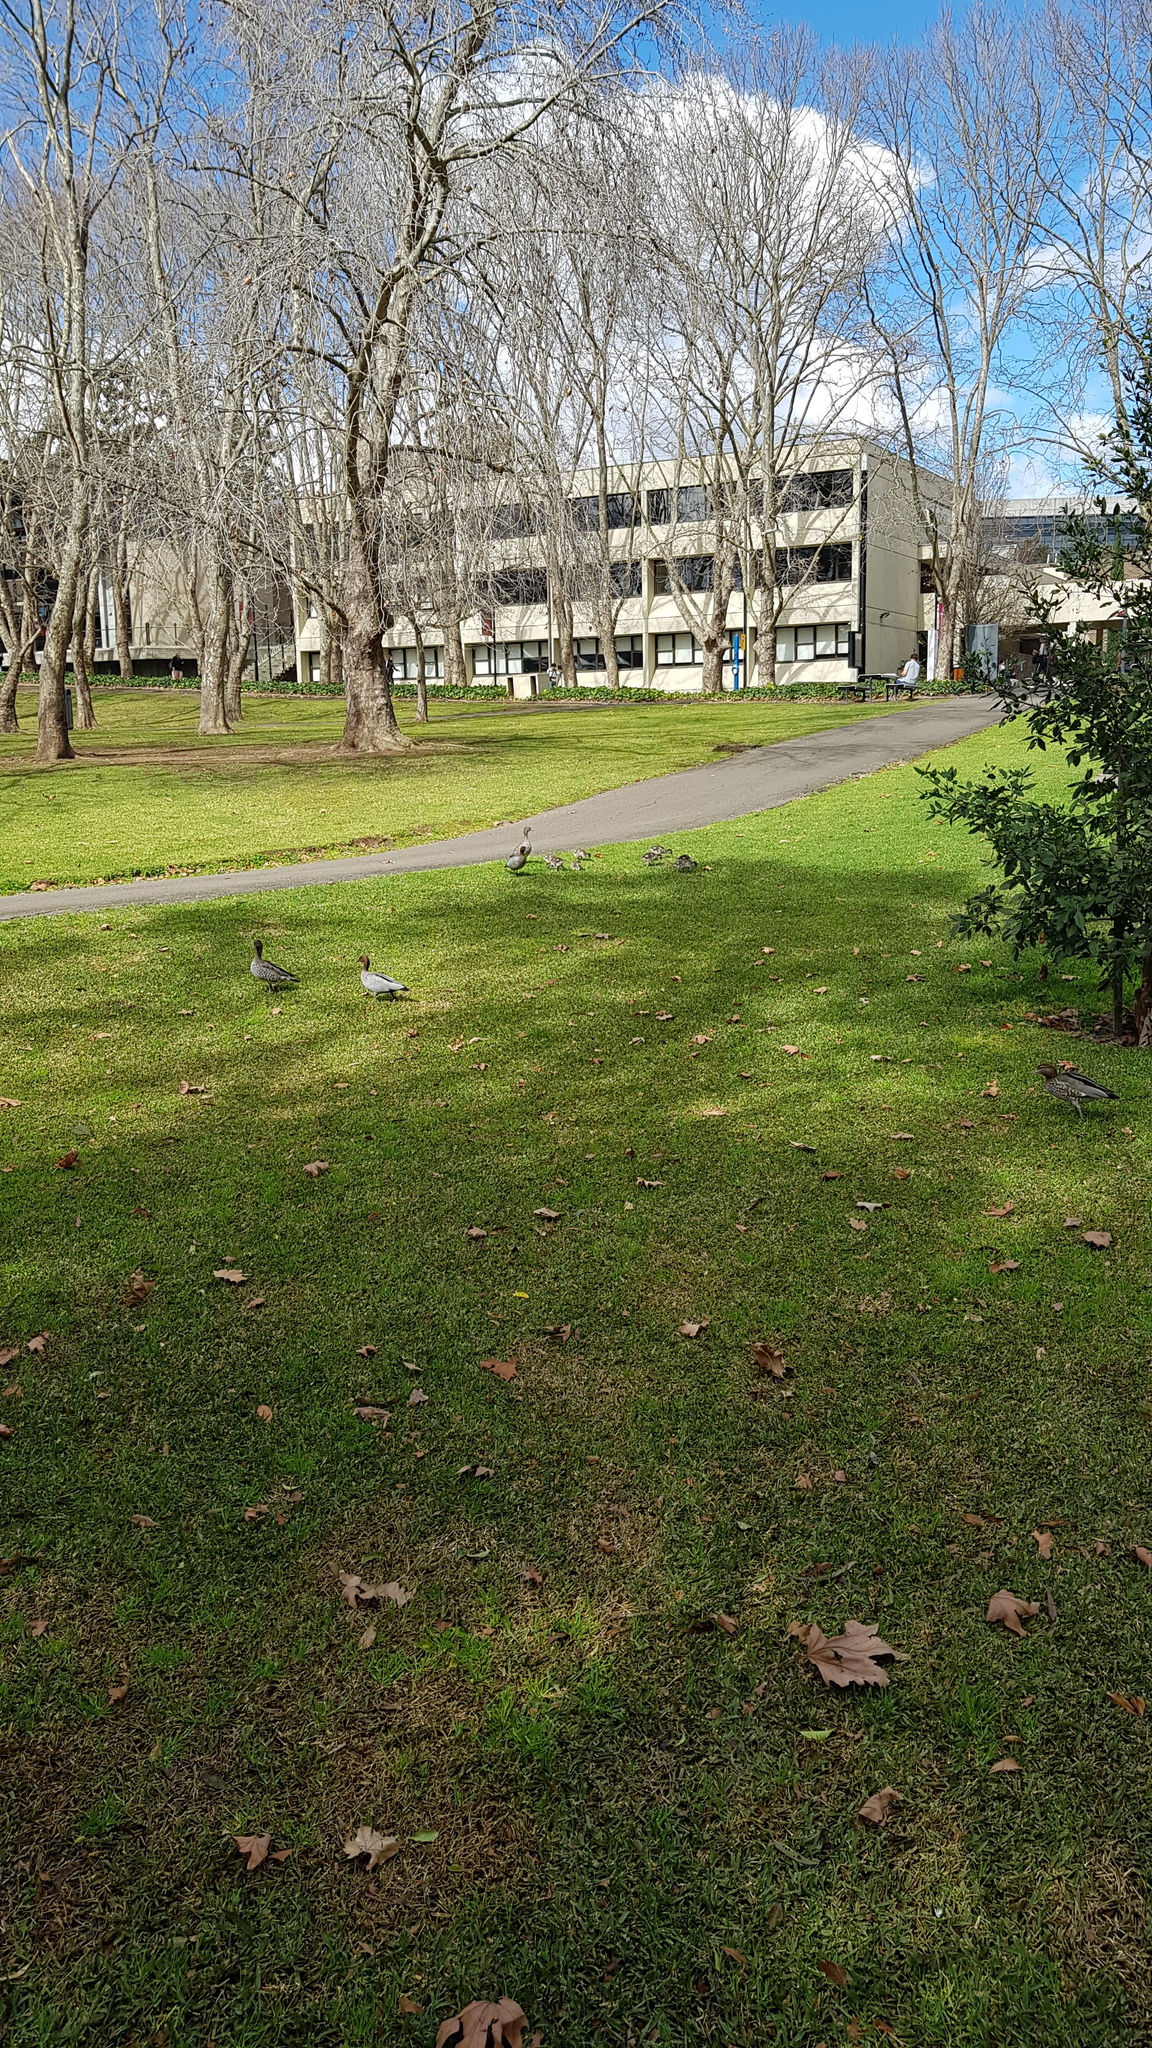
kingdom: Animalia
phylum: Chordata
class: Aves
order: Anseriformes
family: Anatidae
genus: Chenonetta
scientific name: Chenonetta jubata
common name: Maned duck
